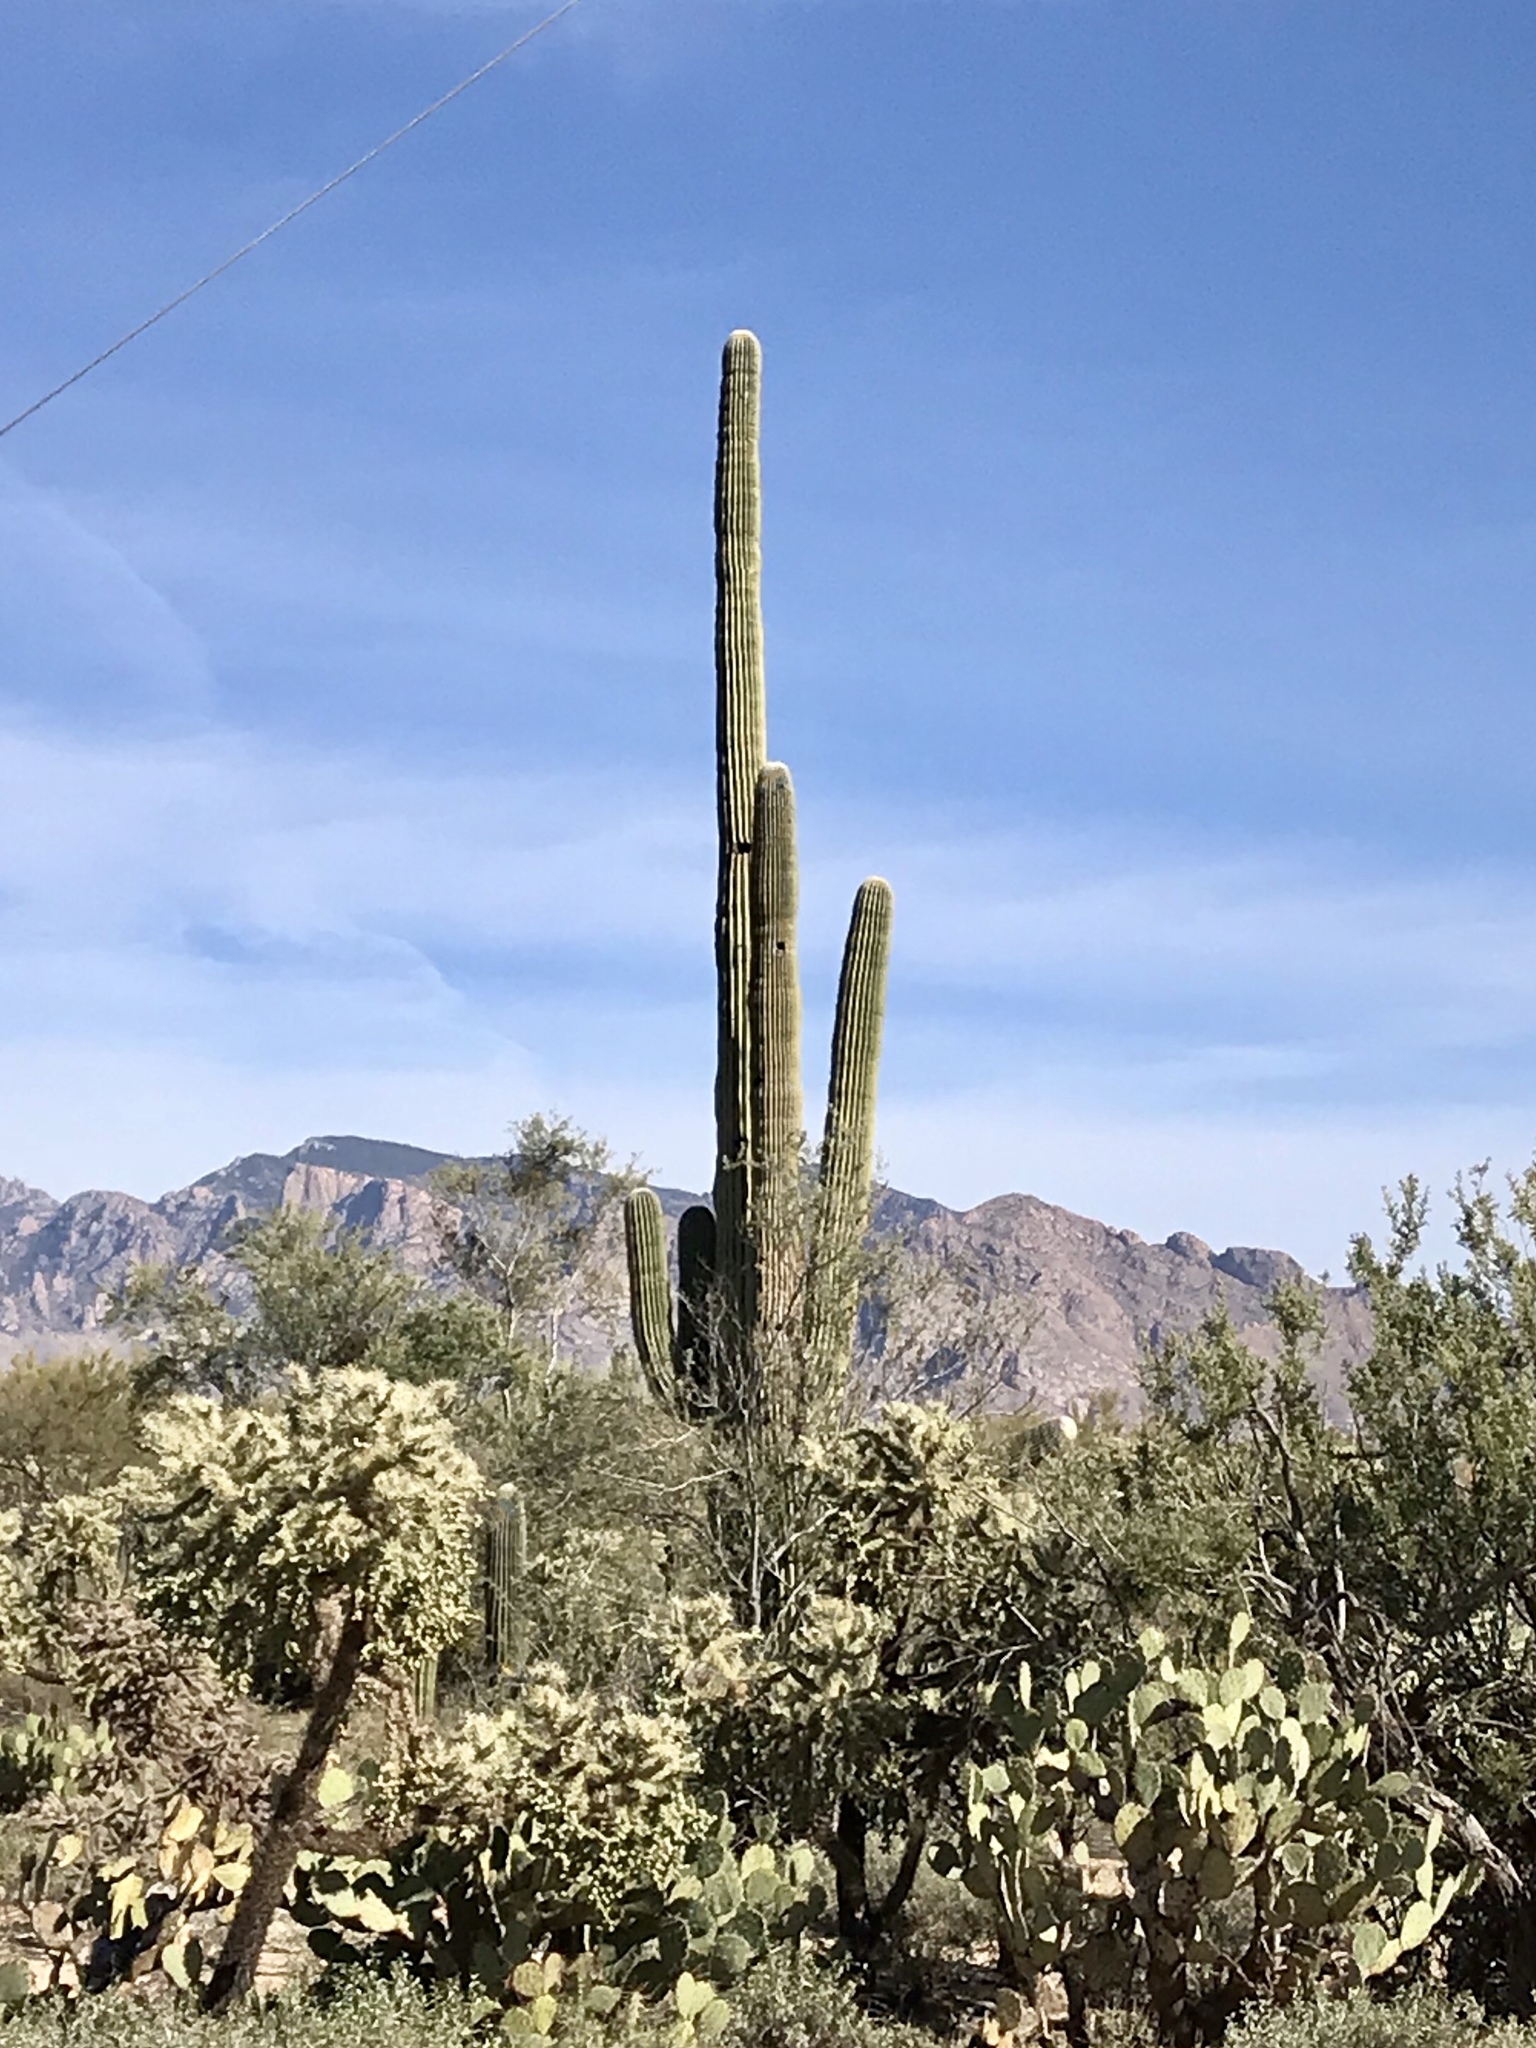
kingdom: Plantae
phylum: Tracheophyta
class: Magnoliopsida
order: Caryophyllales
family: Cactaceae
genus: Carnegiea
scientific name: Carnegiea gigantea
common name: Saguaro
